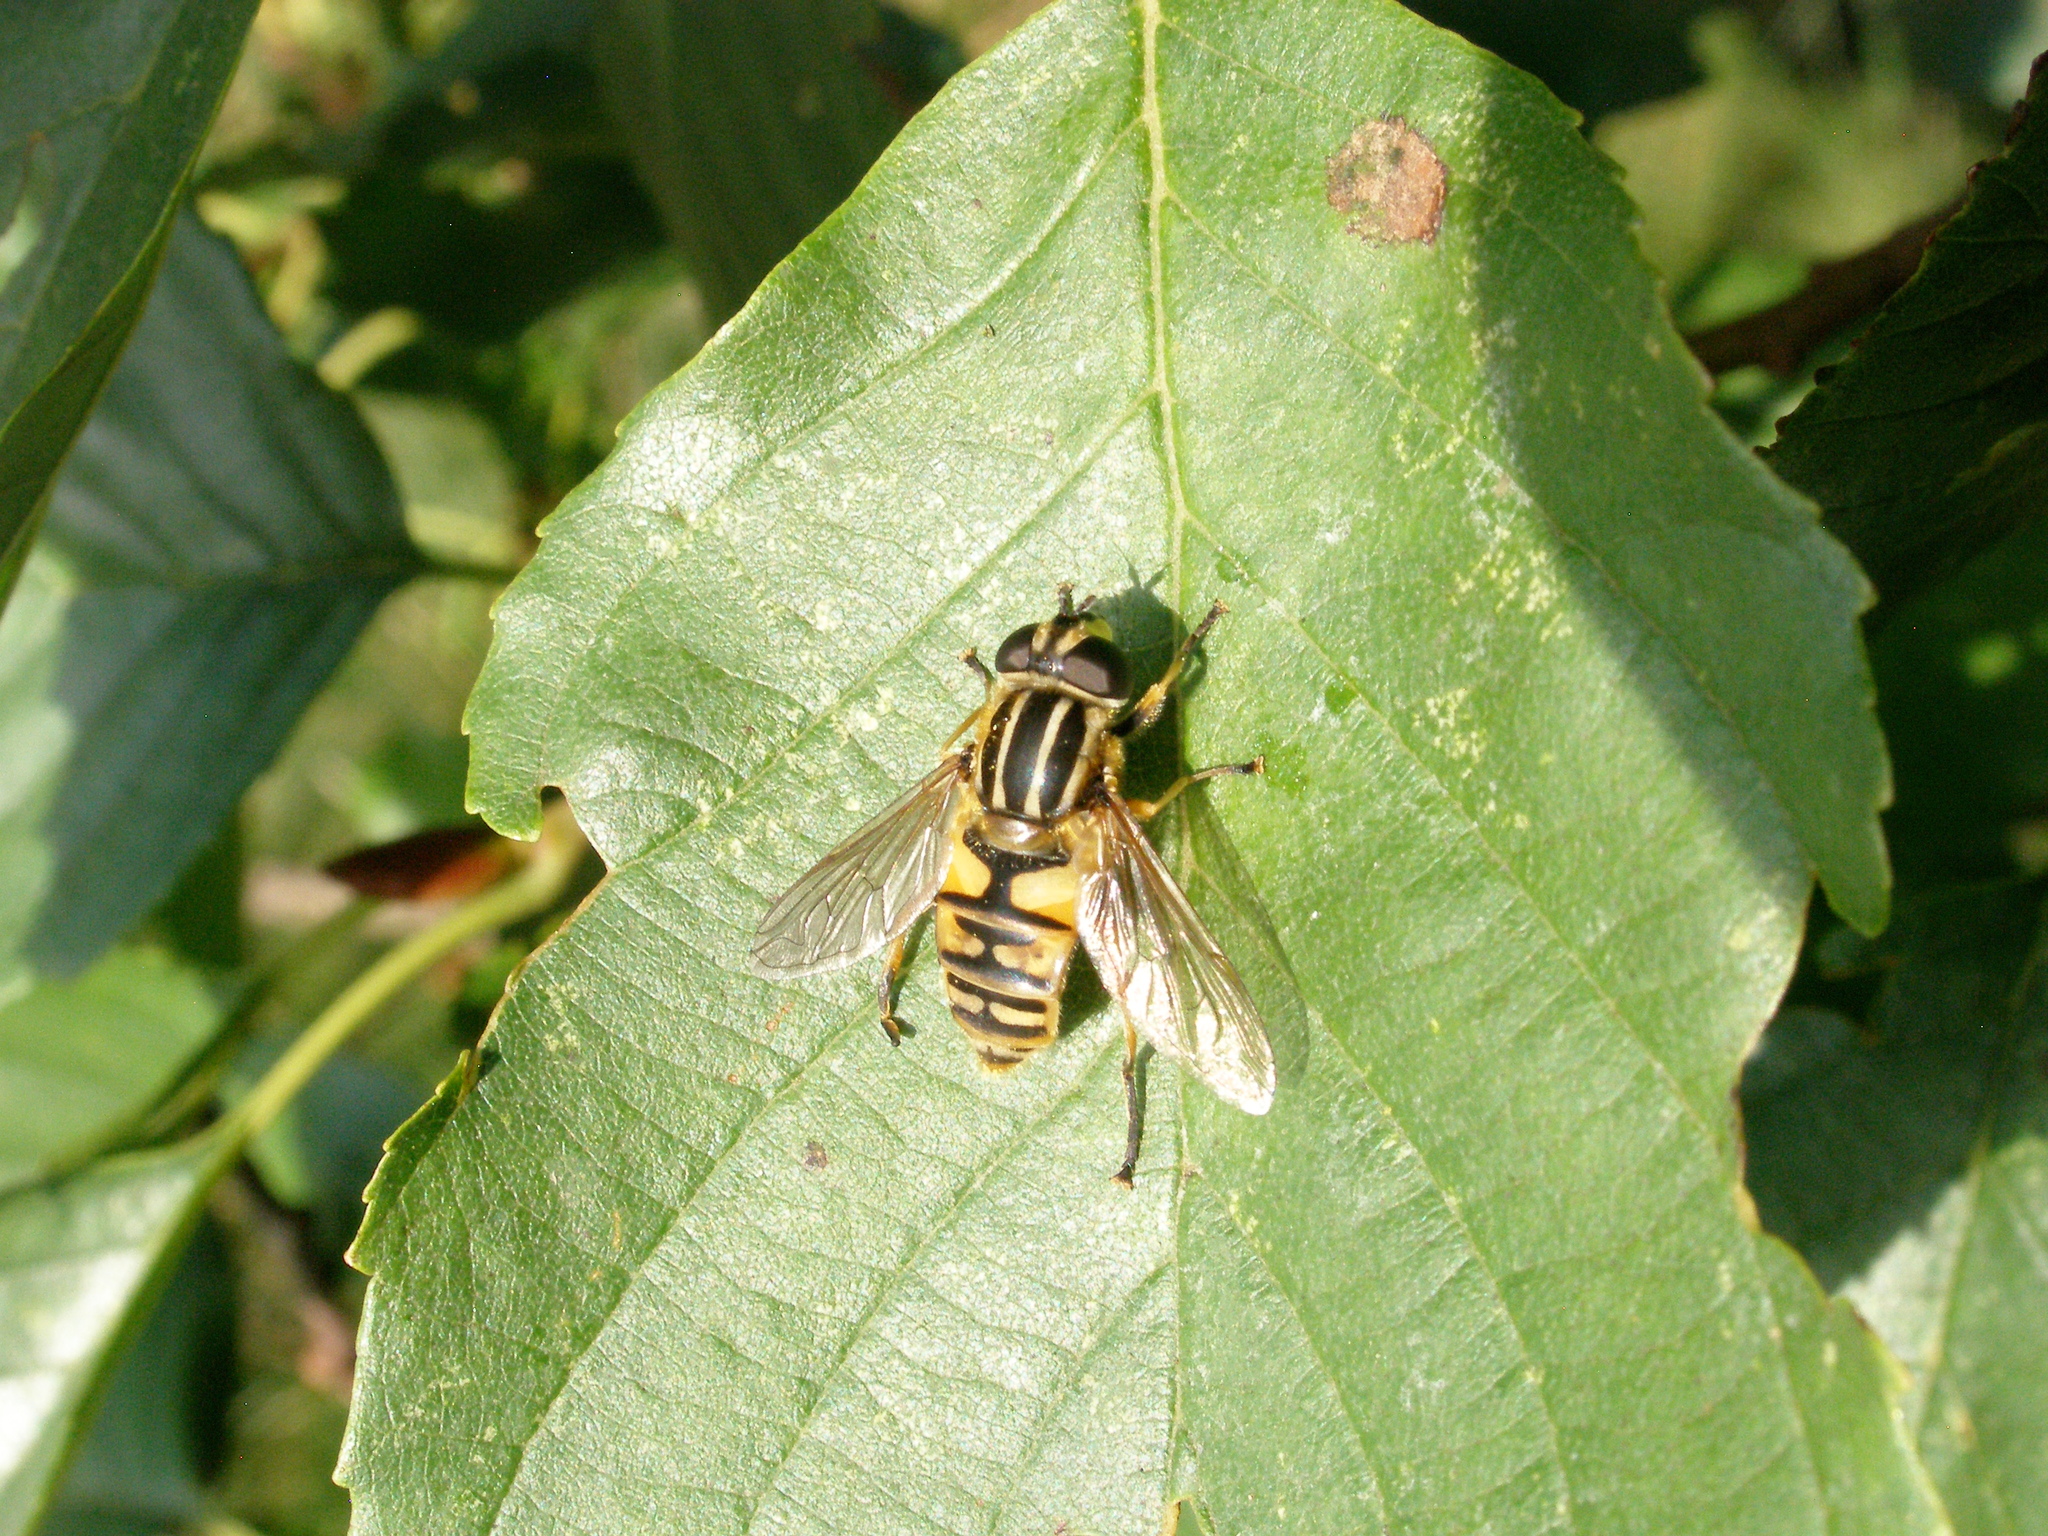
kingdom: Animalia
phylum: Arthropoda
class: Insecta
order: Diptera
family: Syrphidae
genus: Helophilus
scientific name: Helophilus pendulus
